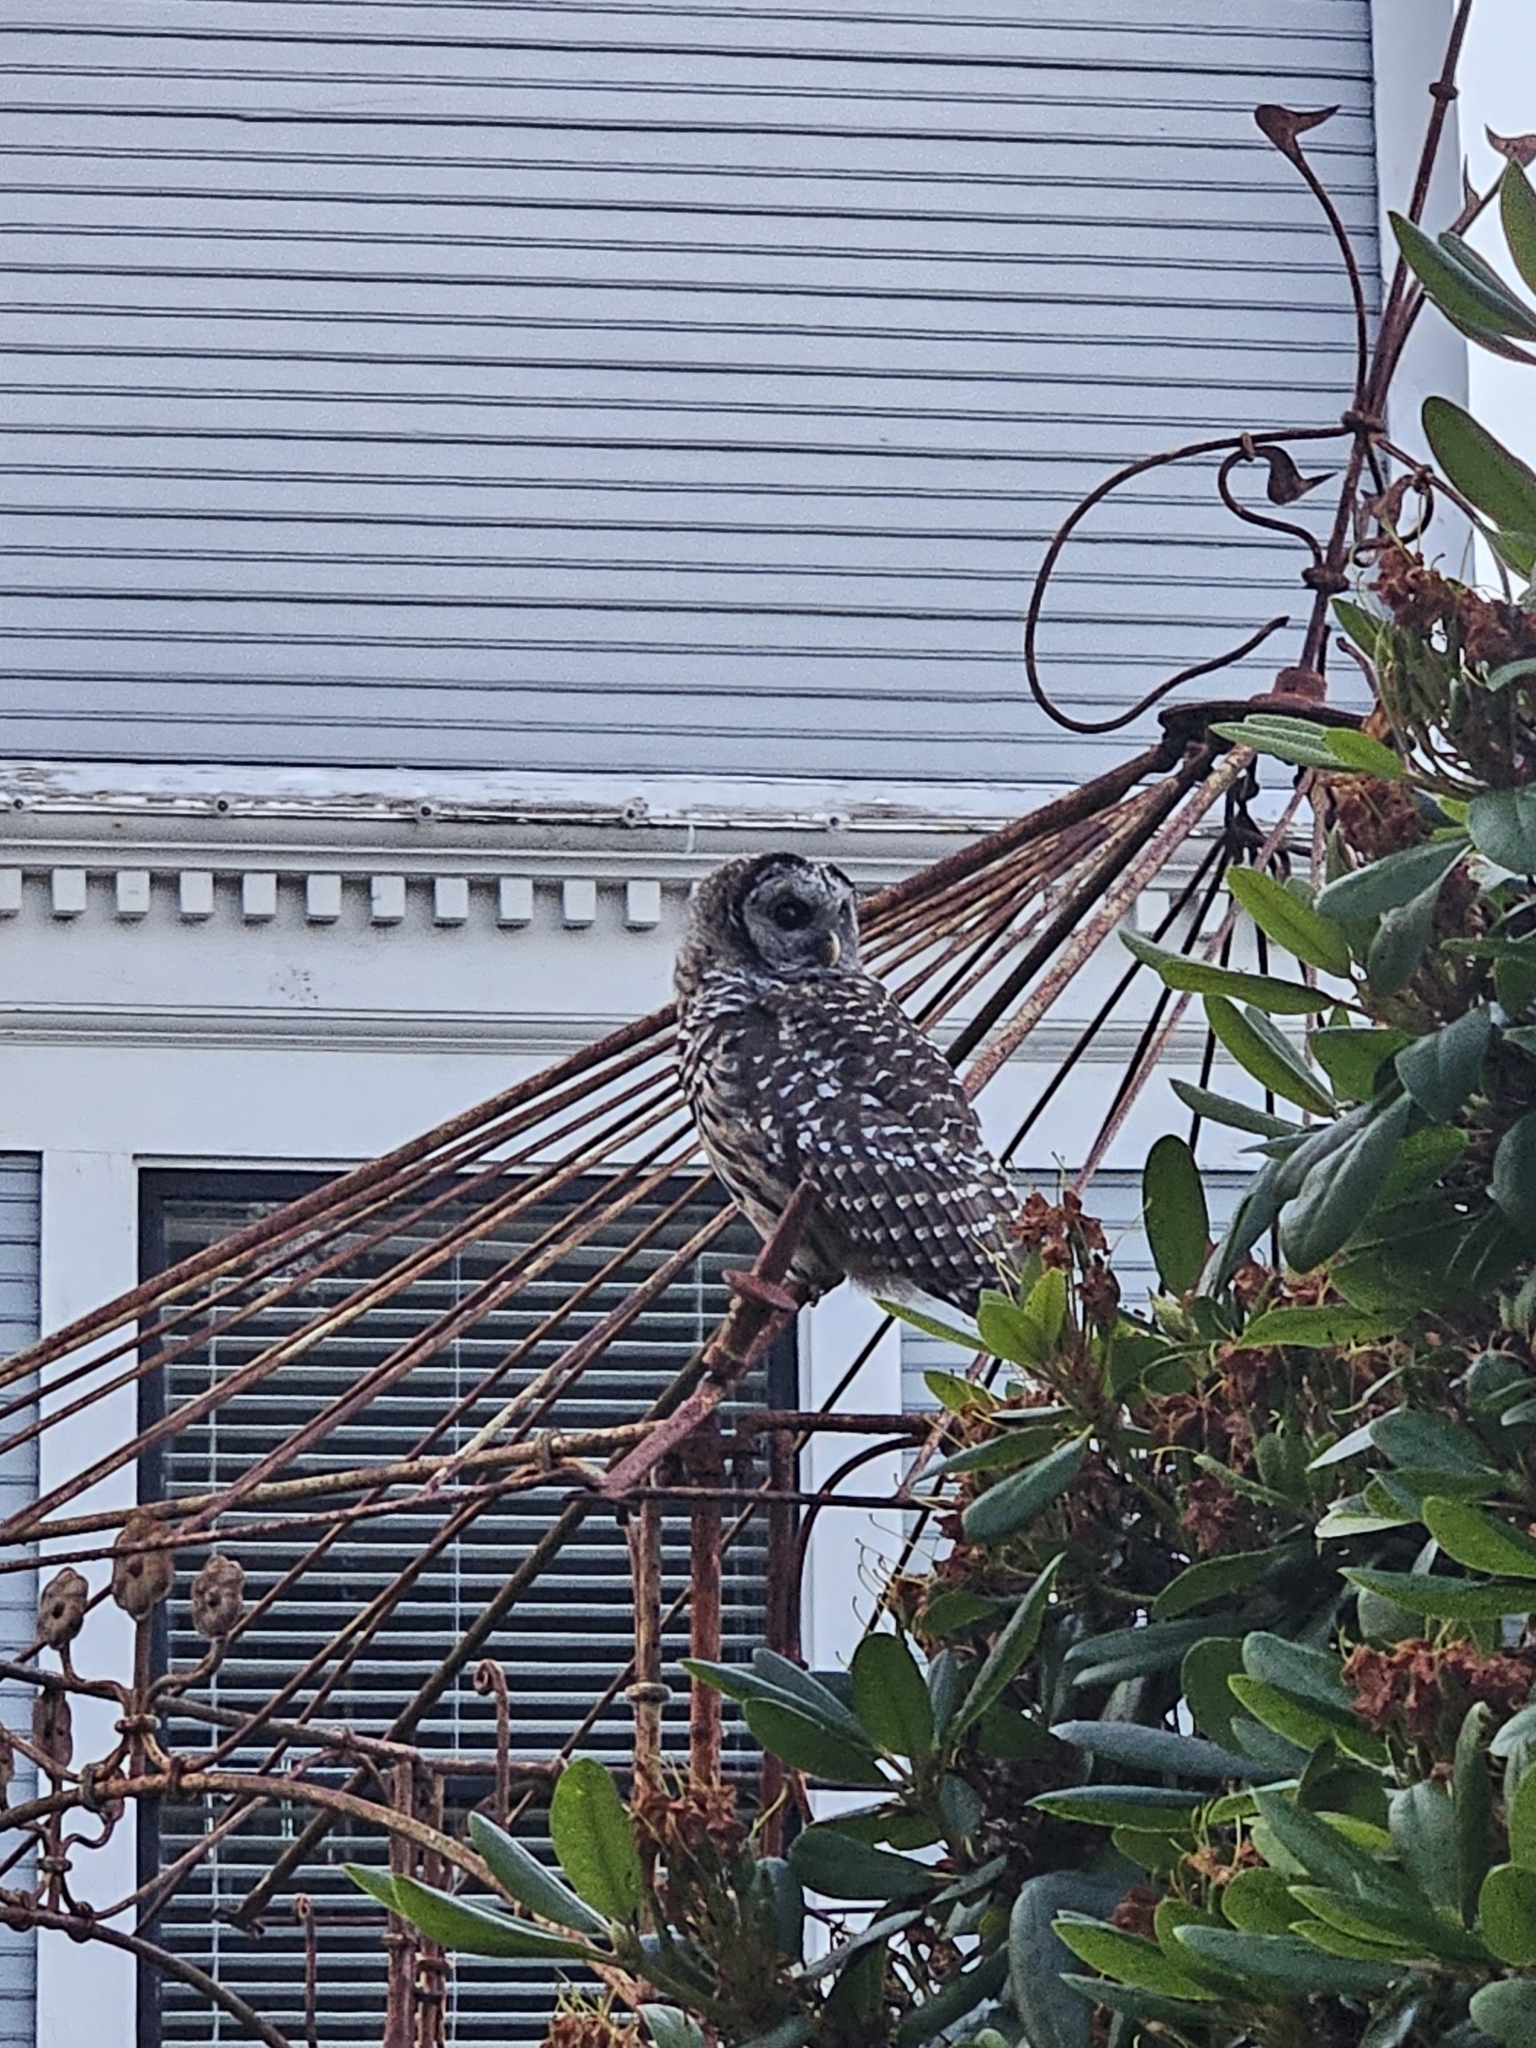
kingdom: Animalia
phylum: Chordata
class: Aves
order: Strigiformes
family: Strigidae
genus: Strix
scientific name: Strix varia
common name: Barred owl
